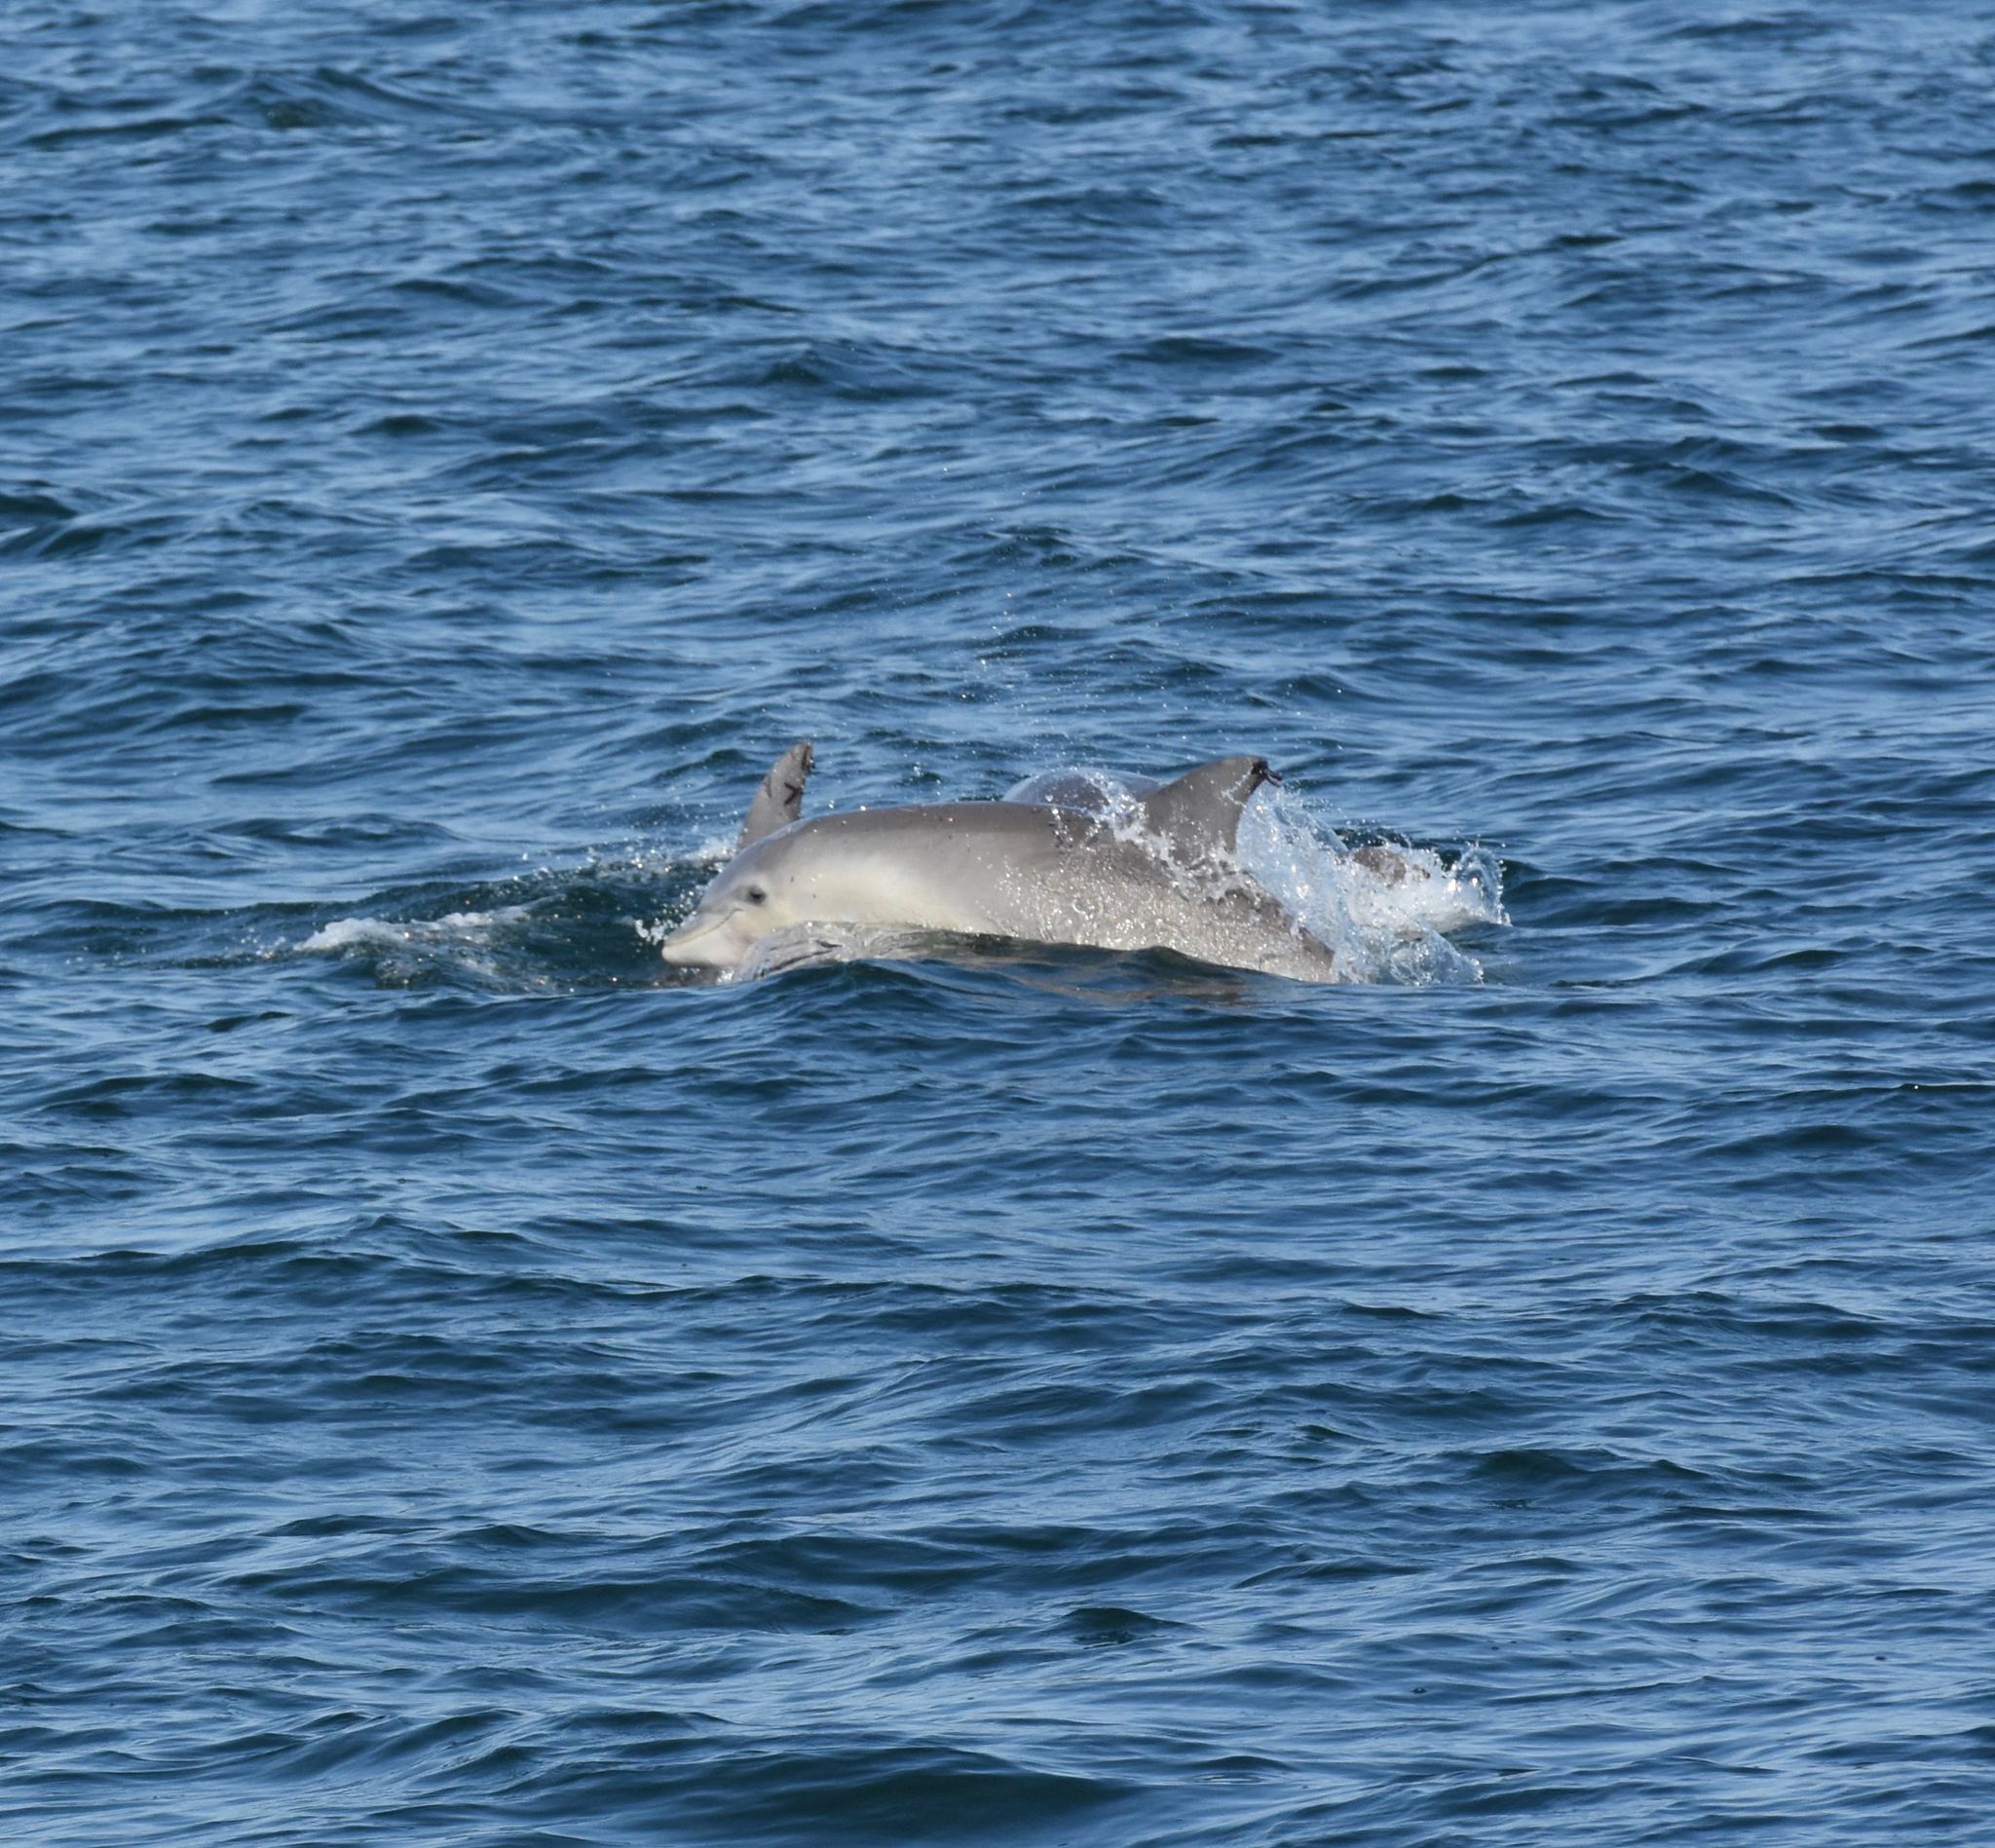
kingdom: Animalia
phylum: Chordata
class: Mammalia
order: Cetacea
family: Delphinidae
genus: Tursiops
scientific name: Tursiops truncatus
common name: Bottlenose dolphin
